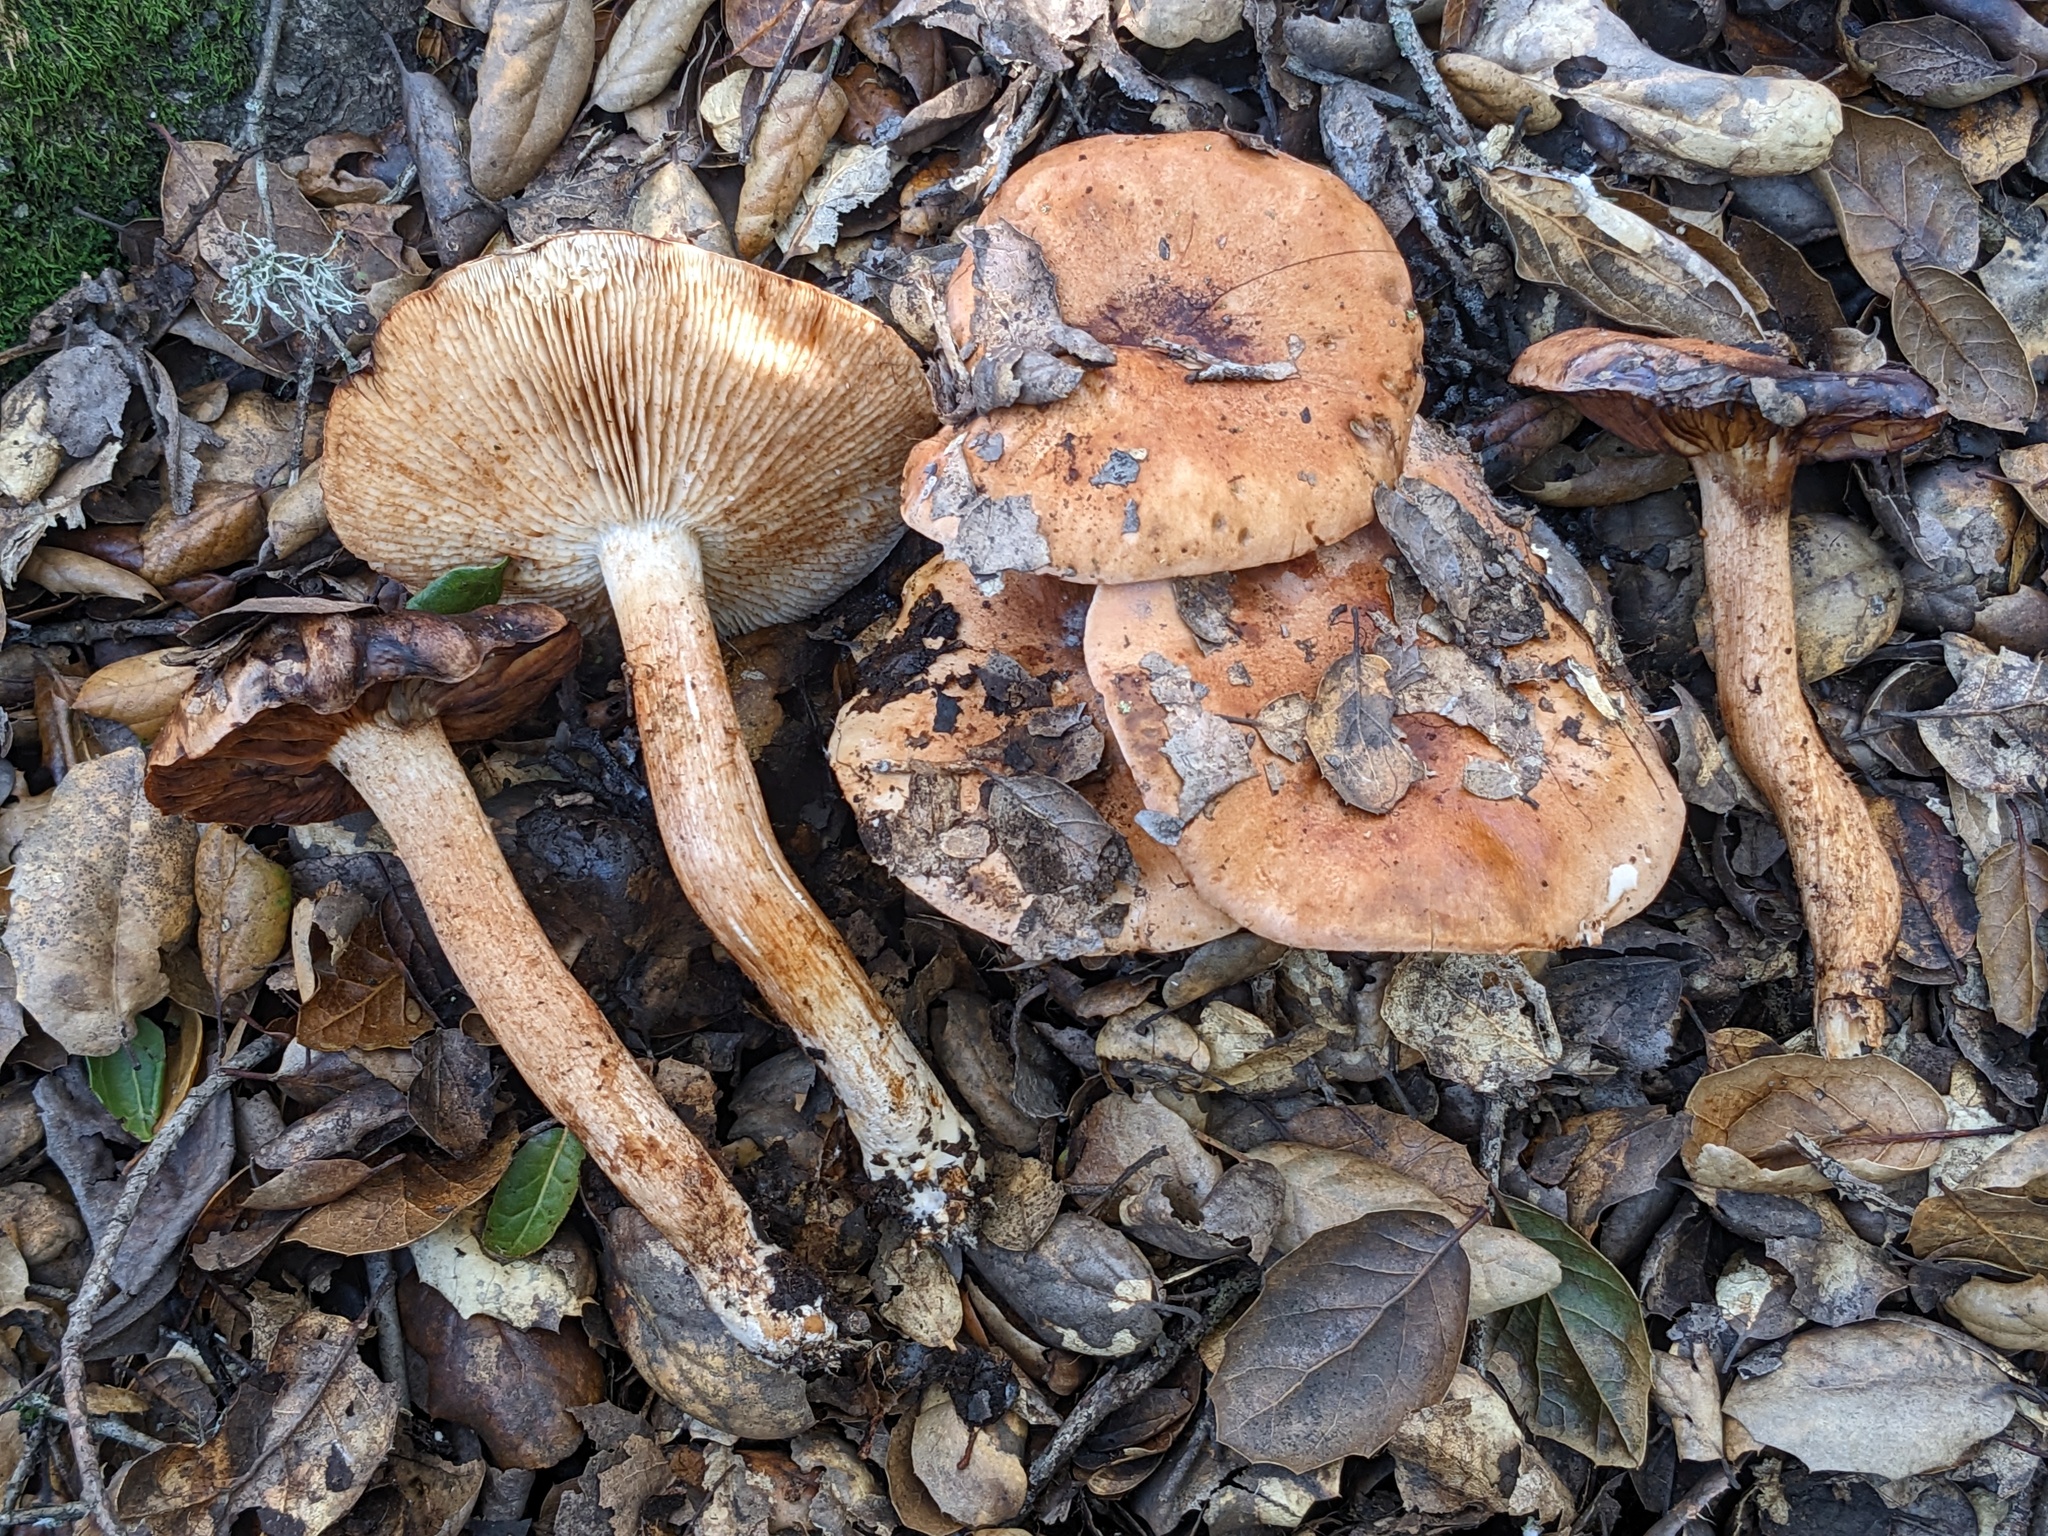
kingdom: Fungi
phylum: Basidiomycota
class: Agaricomycetes
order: Agaricales
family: Tricholomataceae
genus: Melanoleuca
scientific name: Melanoleuca dryophila
